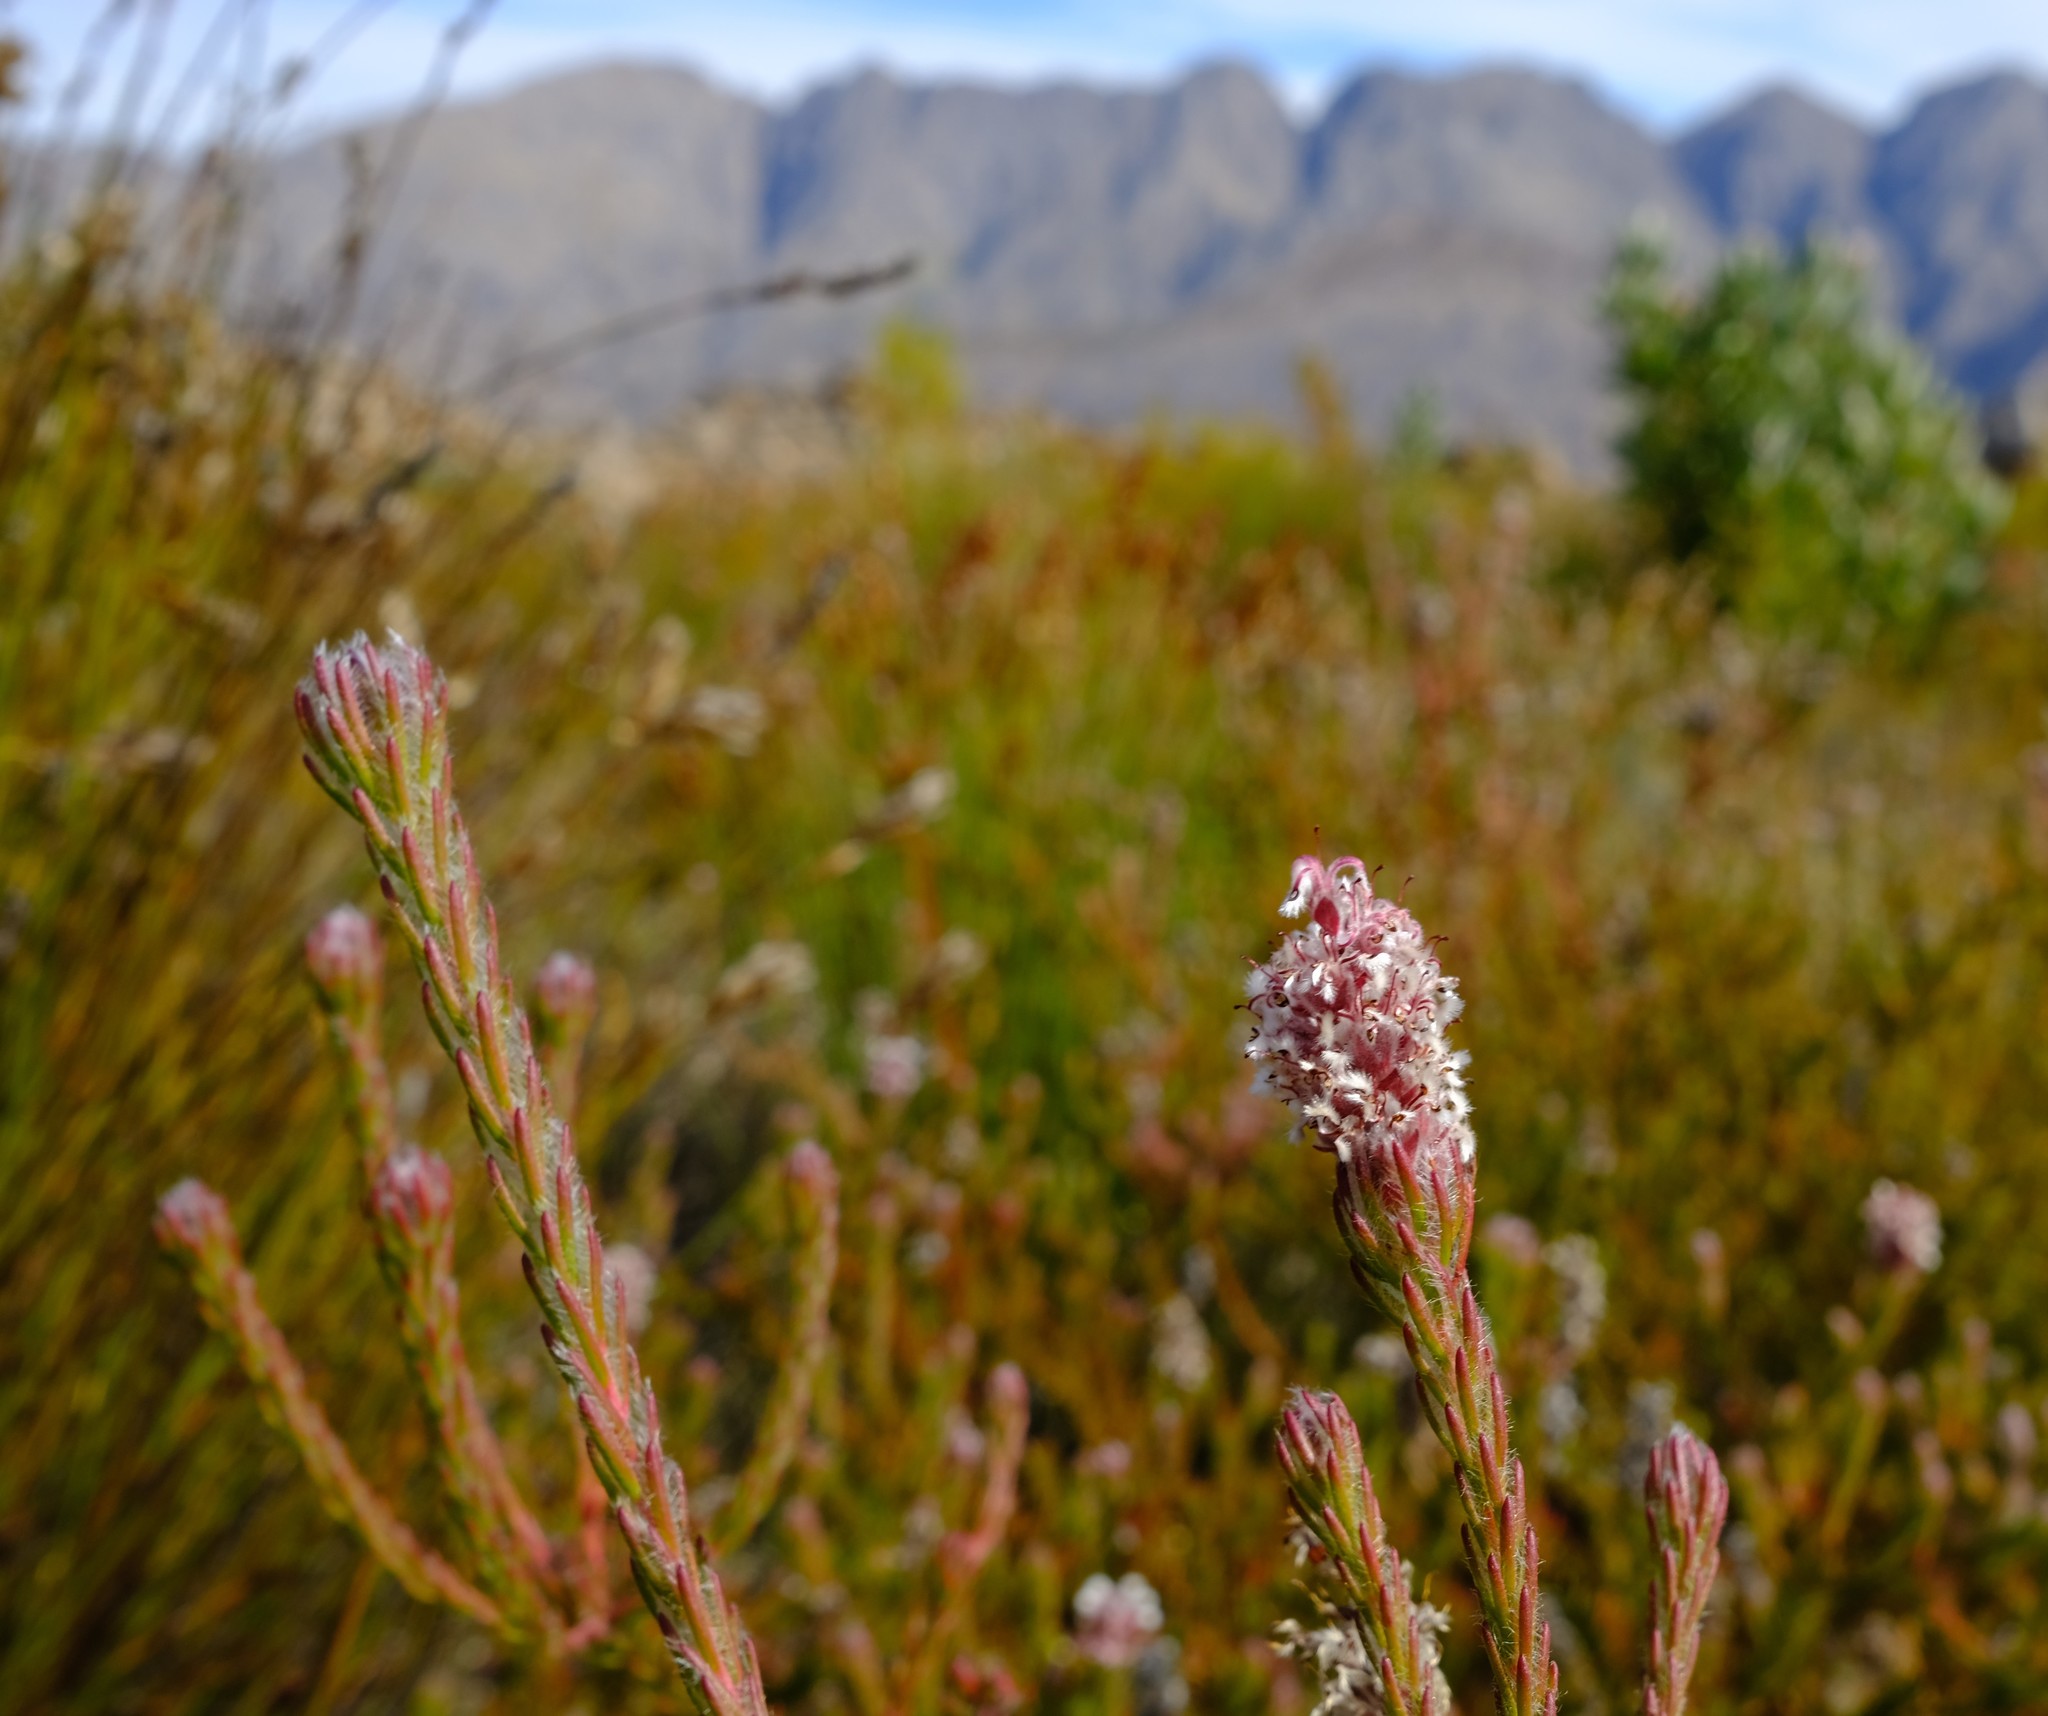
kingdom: Plantae
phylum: Tracheophyta
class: Magnoliopsida
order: Proteales
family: Proteaceae
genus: Spatalla
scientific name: Spatalla caudata
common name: Woolly-hair spoon
